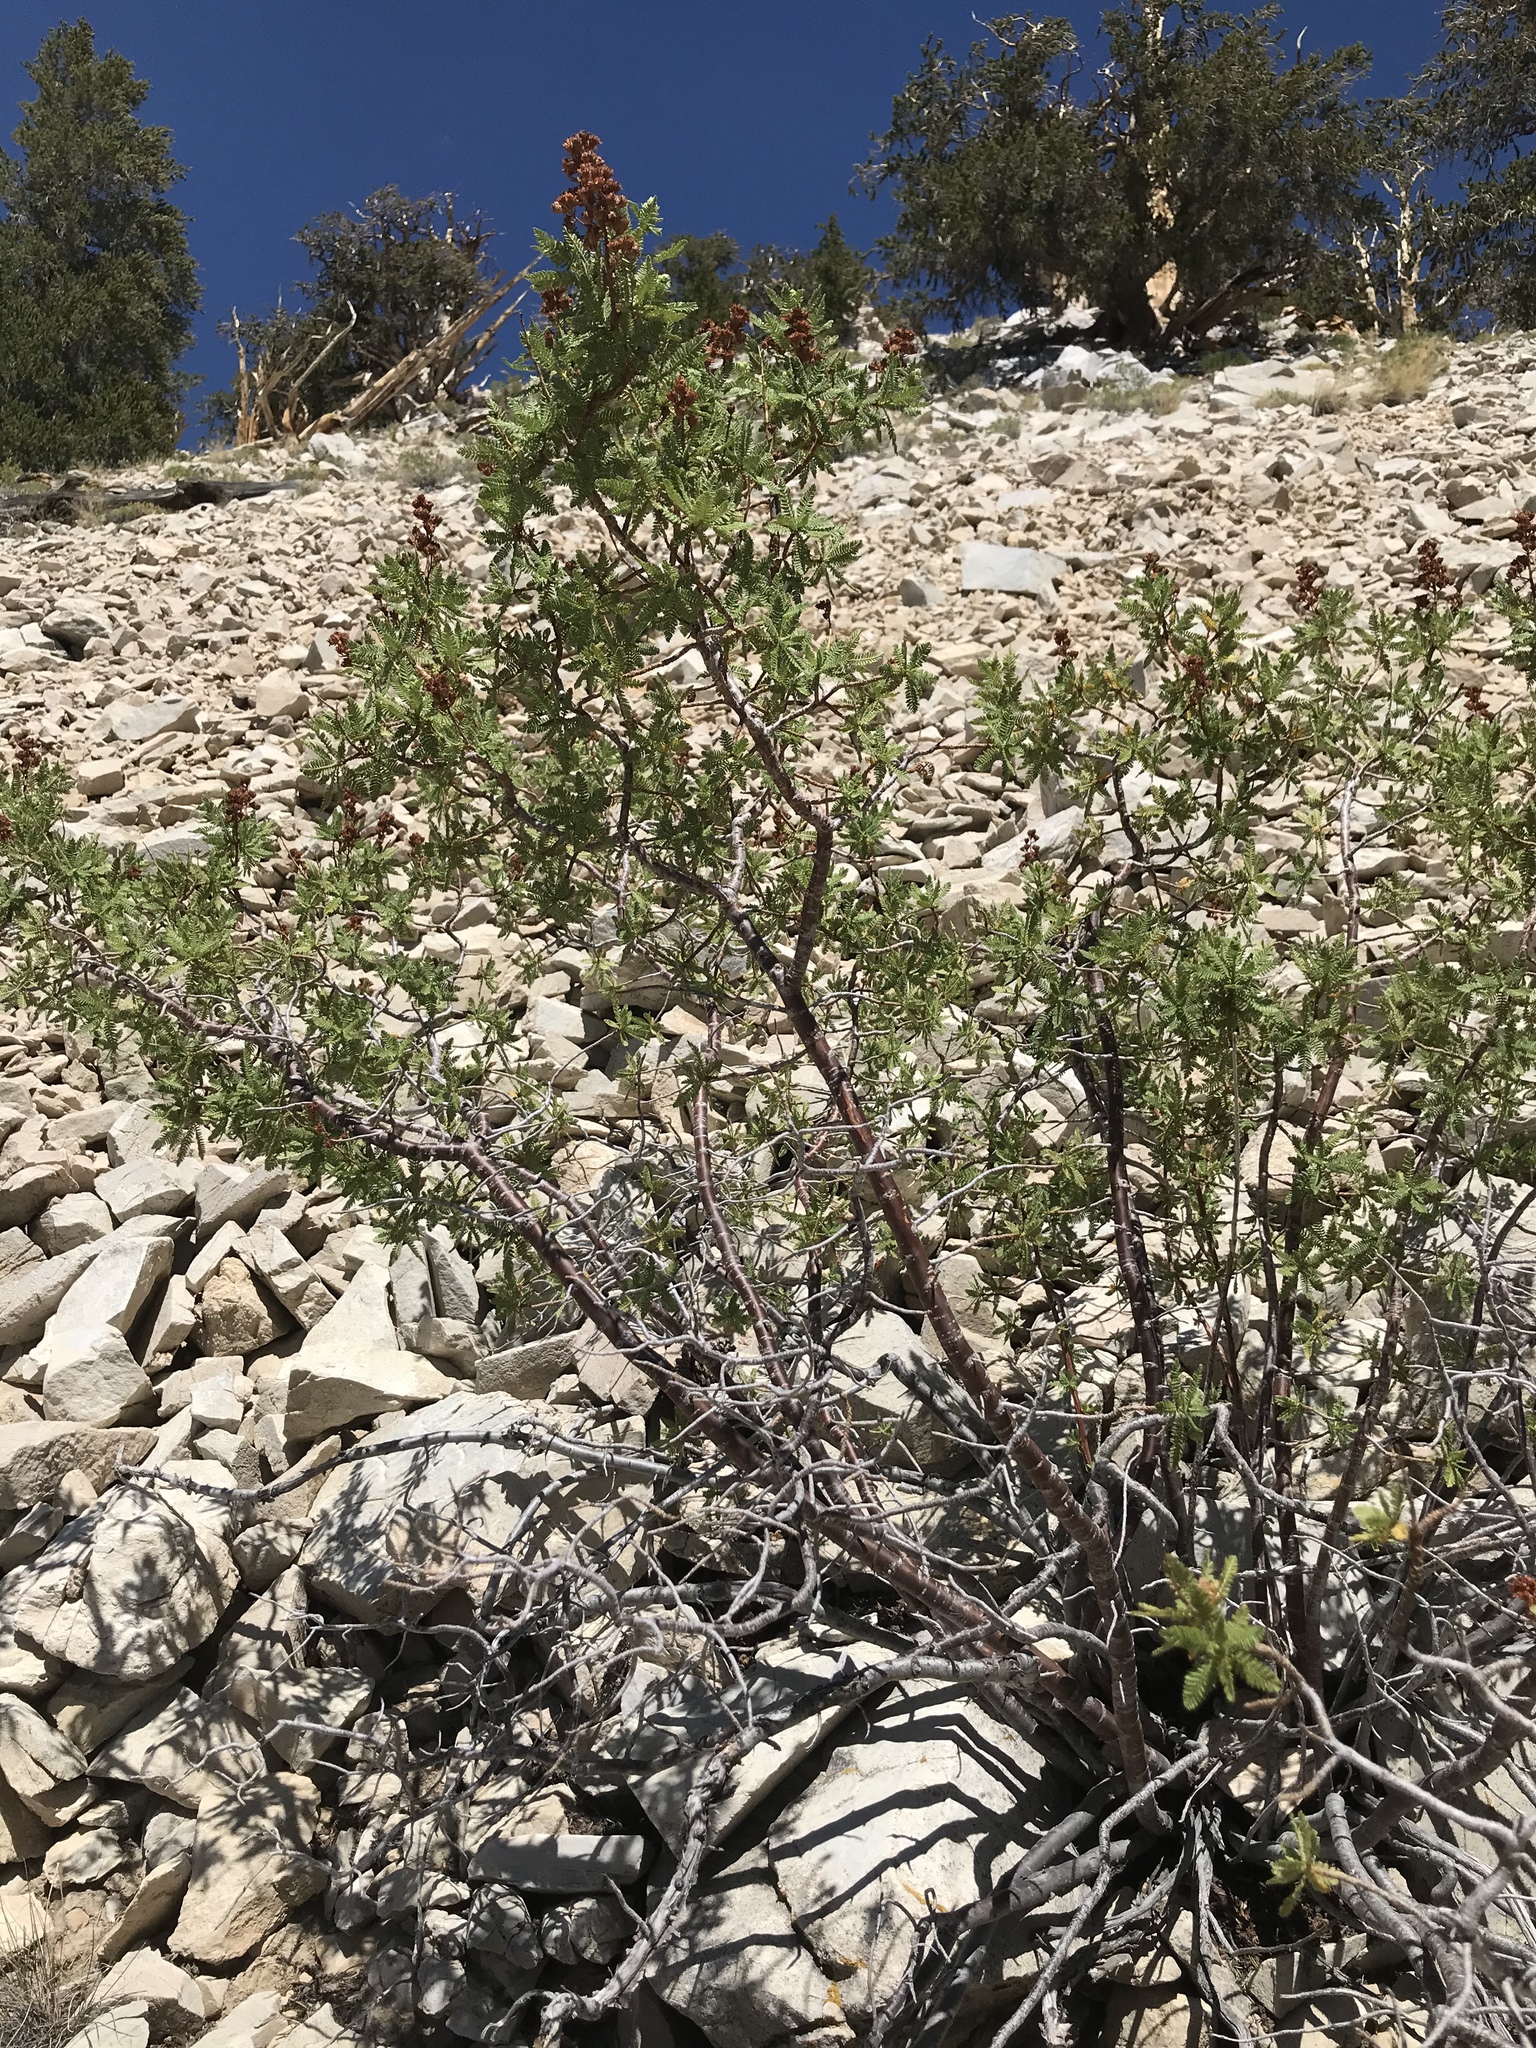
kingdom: Plantae
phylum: Tracheophyta
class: Magnoliopsida
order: Rosales
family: Rosaceae
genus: Chamaebatiaria
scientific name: Chamaebatiaria millefolium
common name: Fernbush
